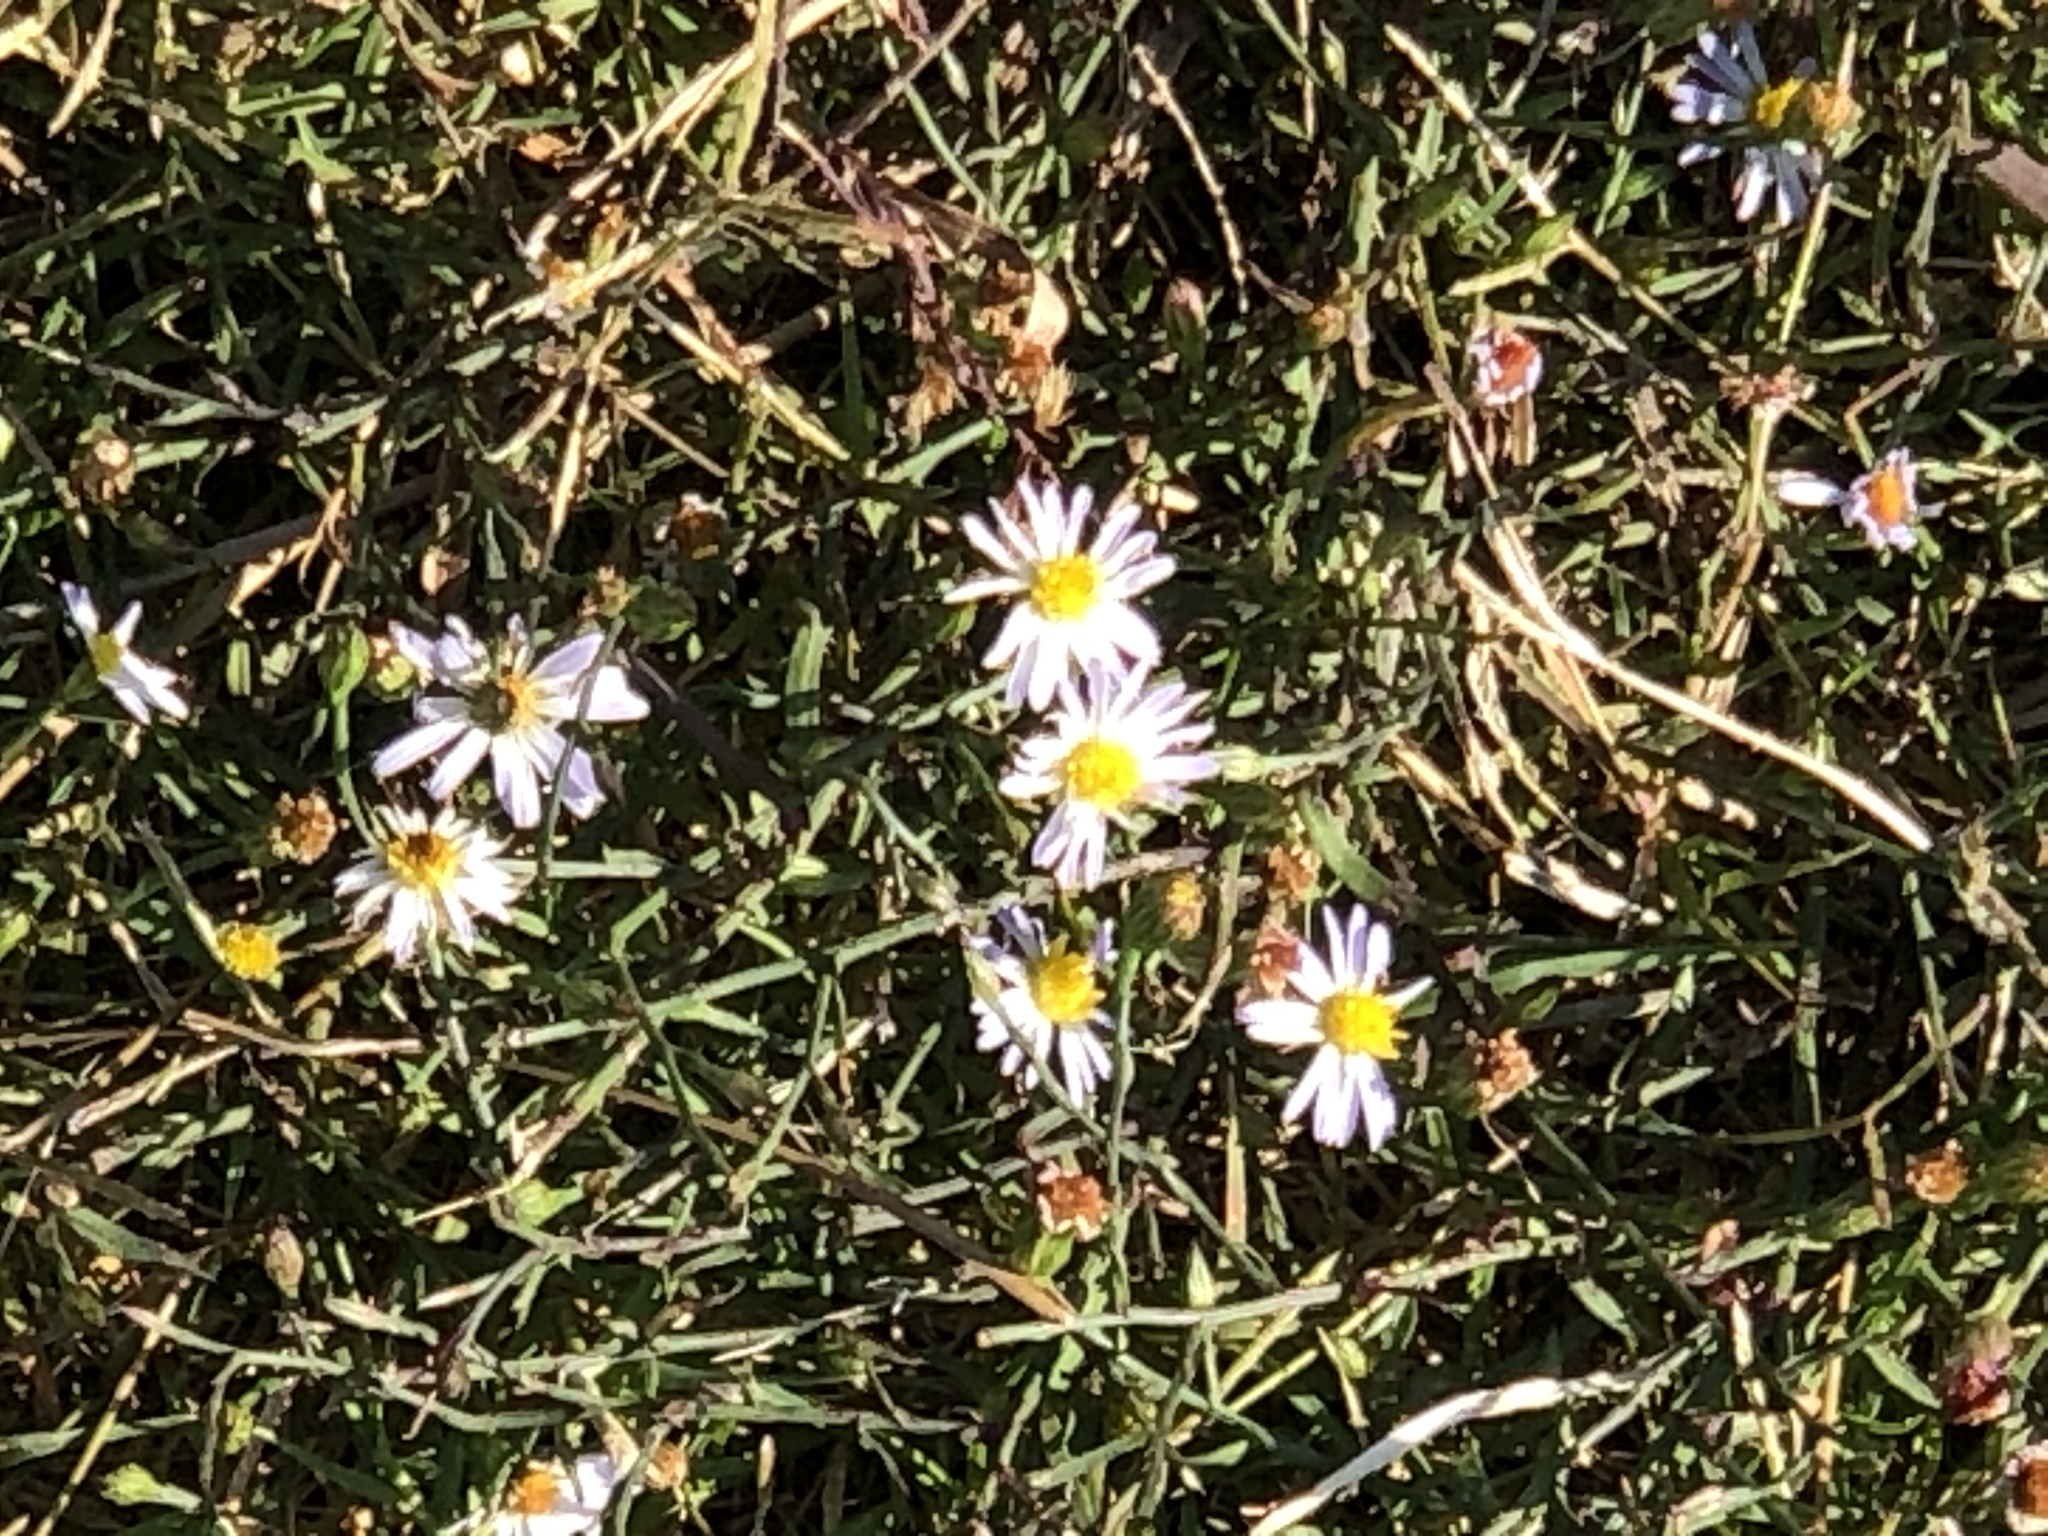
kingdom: Plantae
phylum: Tracheophyta
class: Magnoliopsida
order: Asterales
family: Asteraceae
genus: Symphyotrichum
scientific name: Symphyotrichum divaricatum
